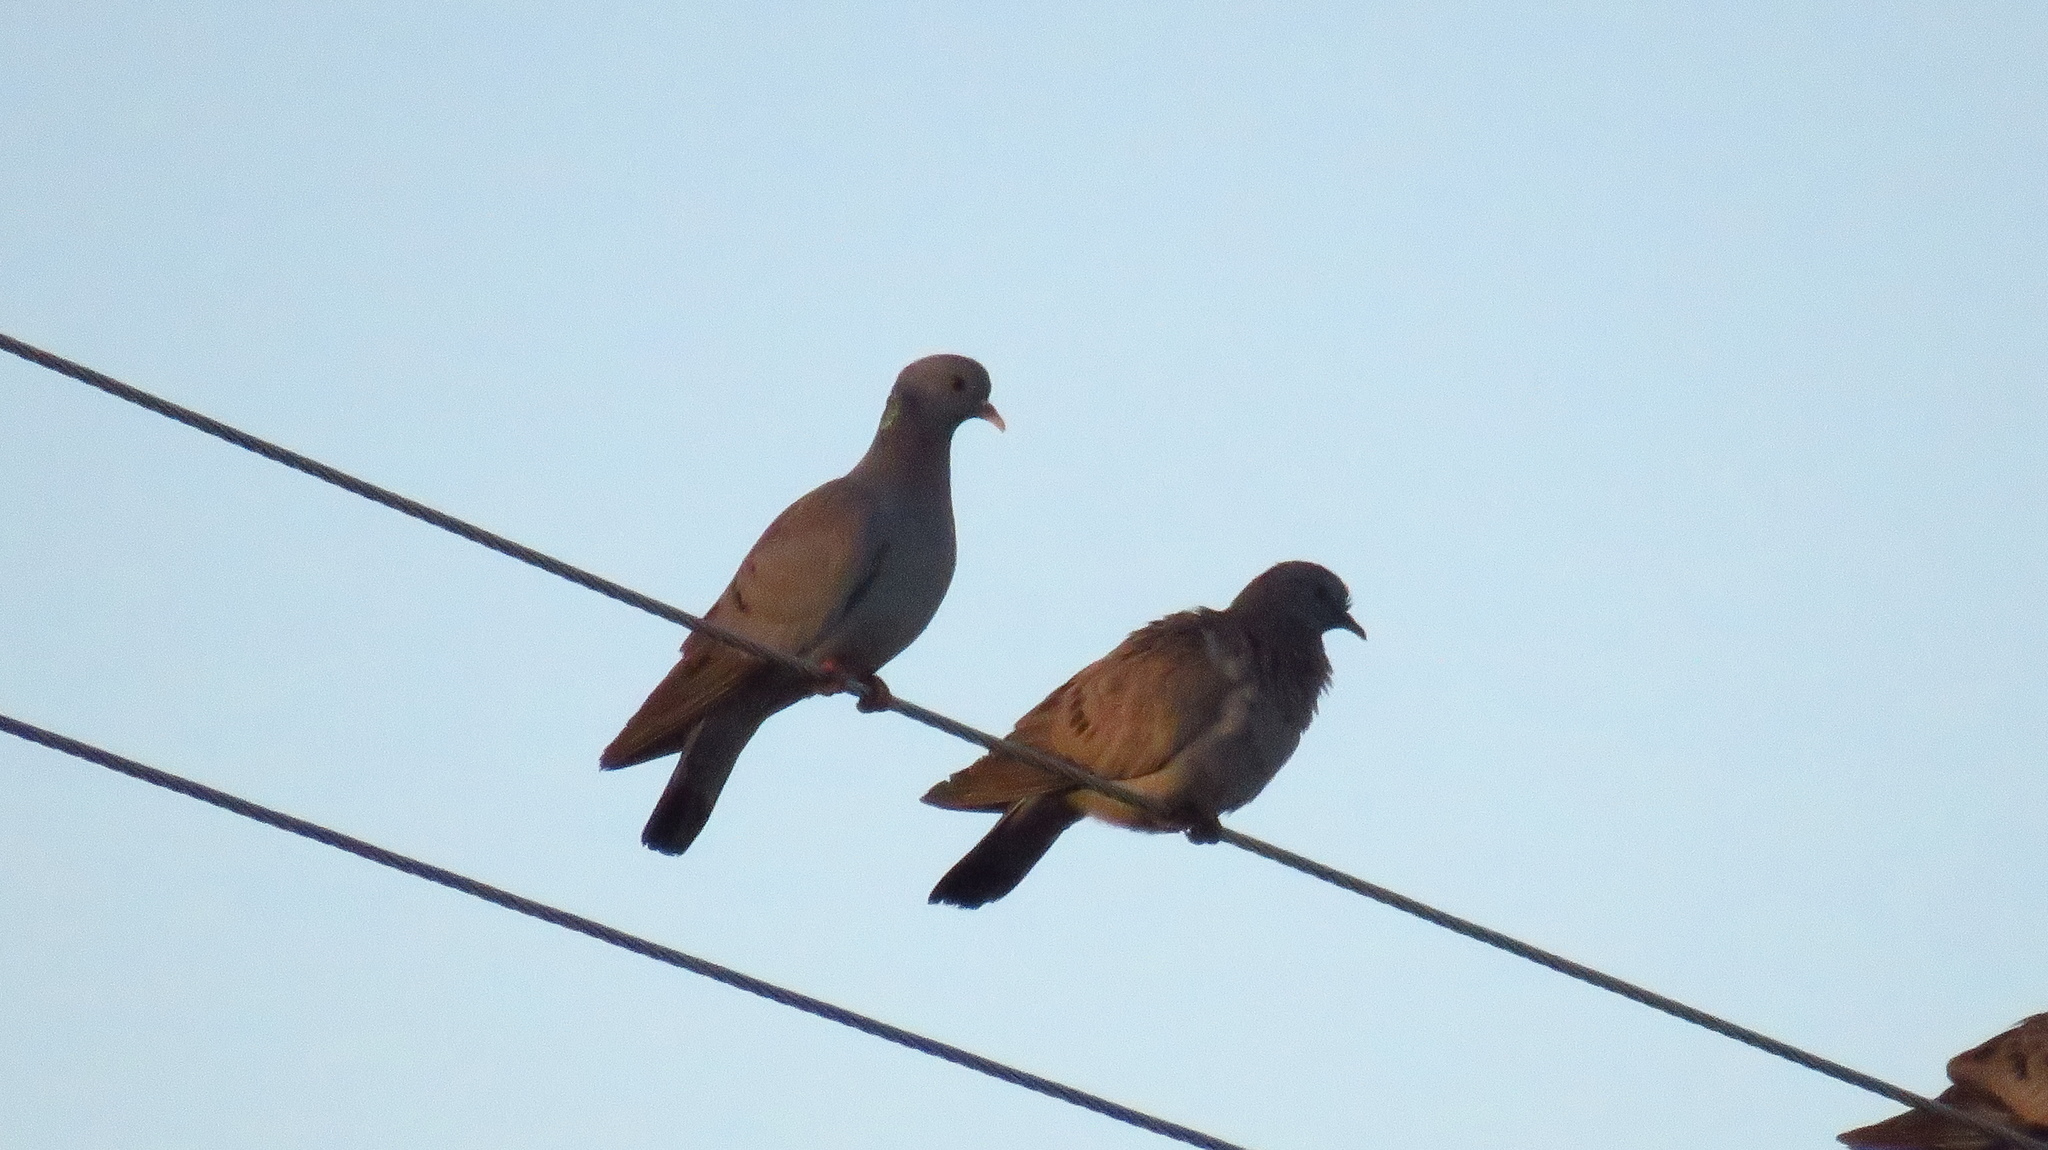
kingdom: Animalia
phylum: Chordata
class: Aves
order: Columbiformes
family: Columbidae
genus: Columba
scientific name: Columba oenas
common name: Stock dove
